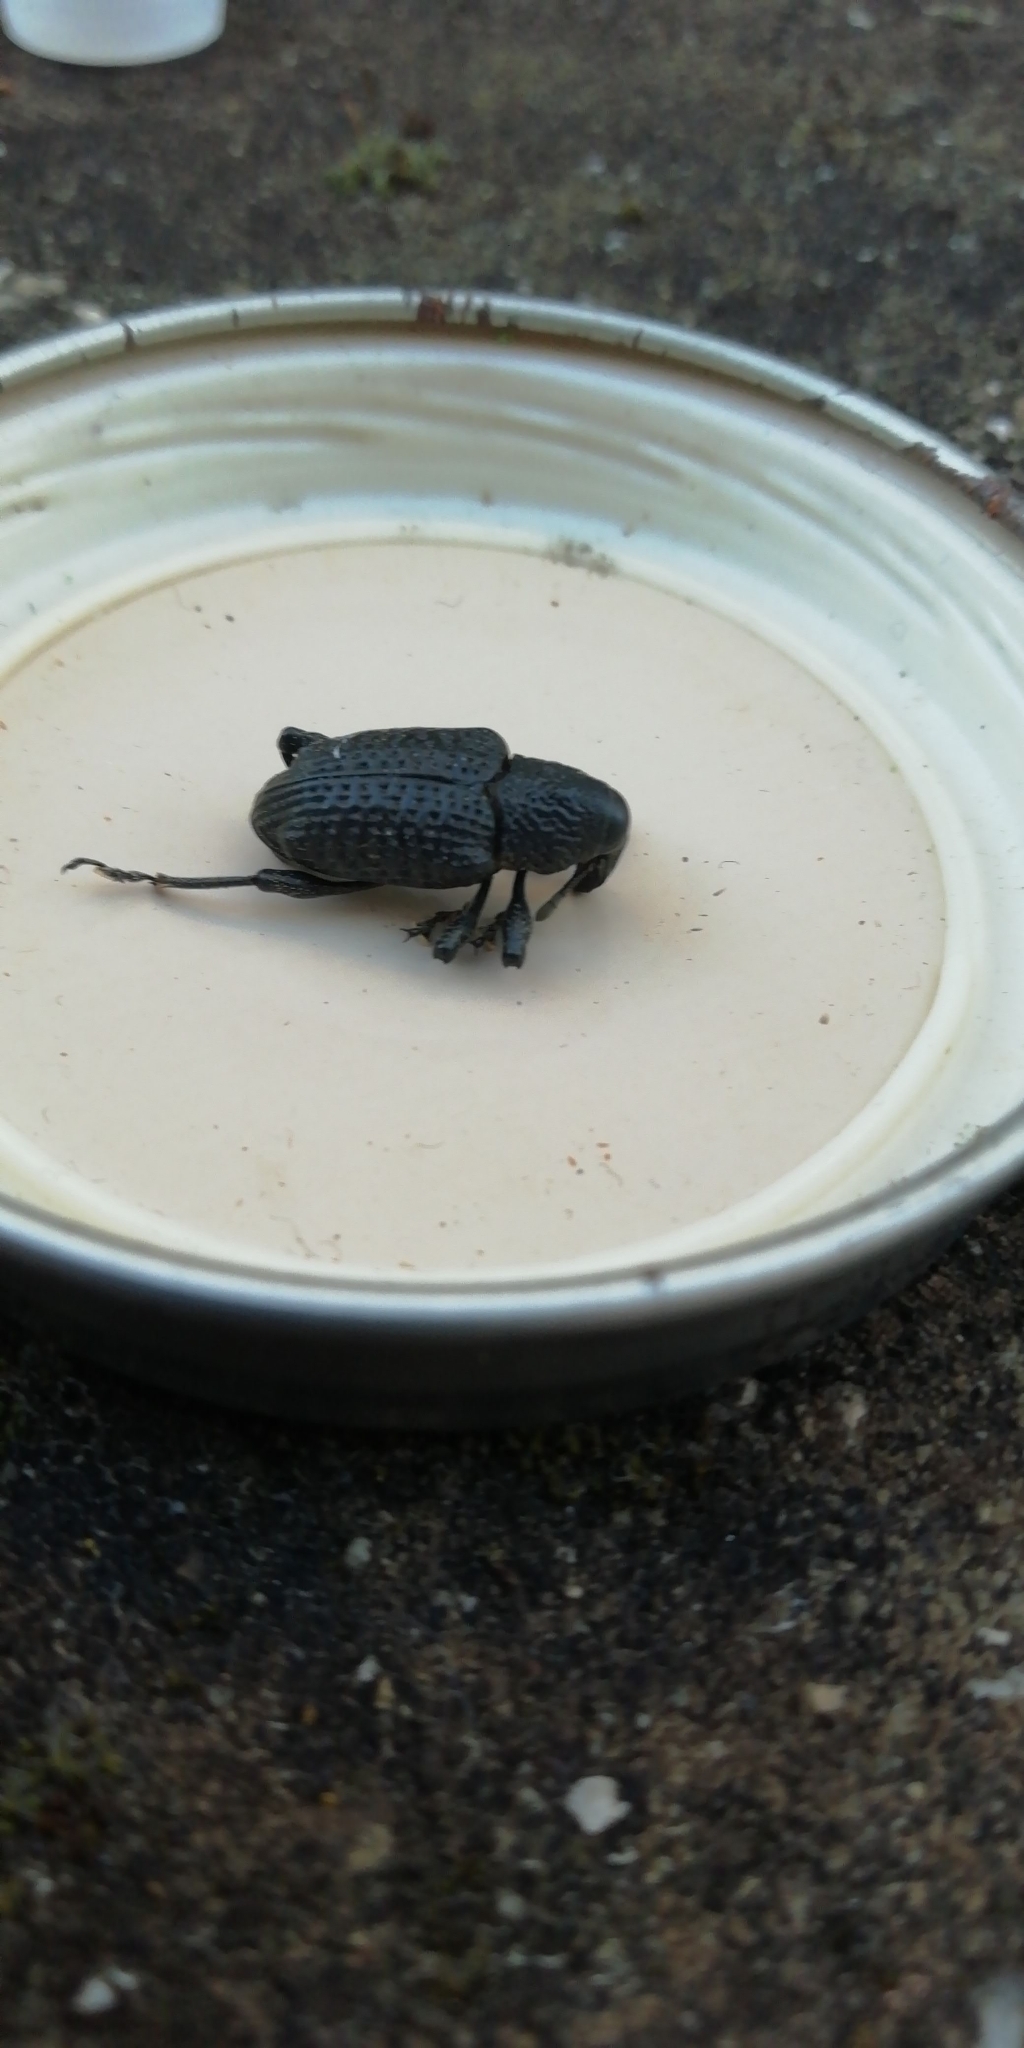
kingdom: Animalia
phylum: Arthropoda
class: Insecta
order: Coleoptera
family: Curculionidae
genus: Aclees
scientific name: Aclees taiwanensis
